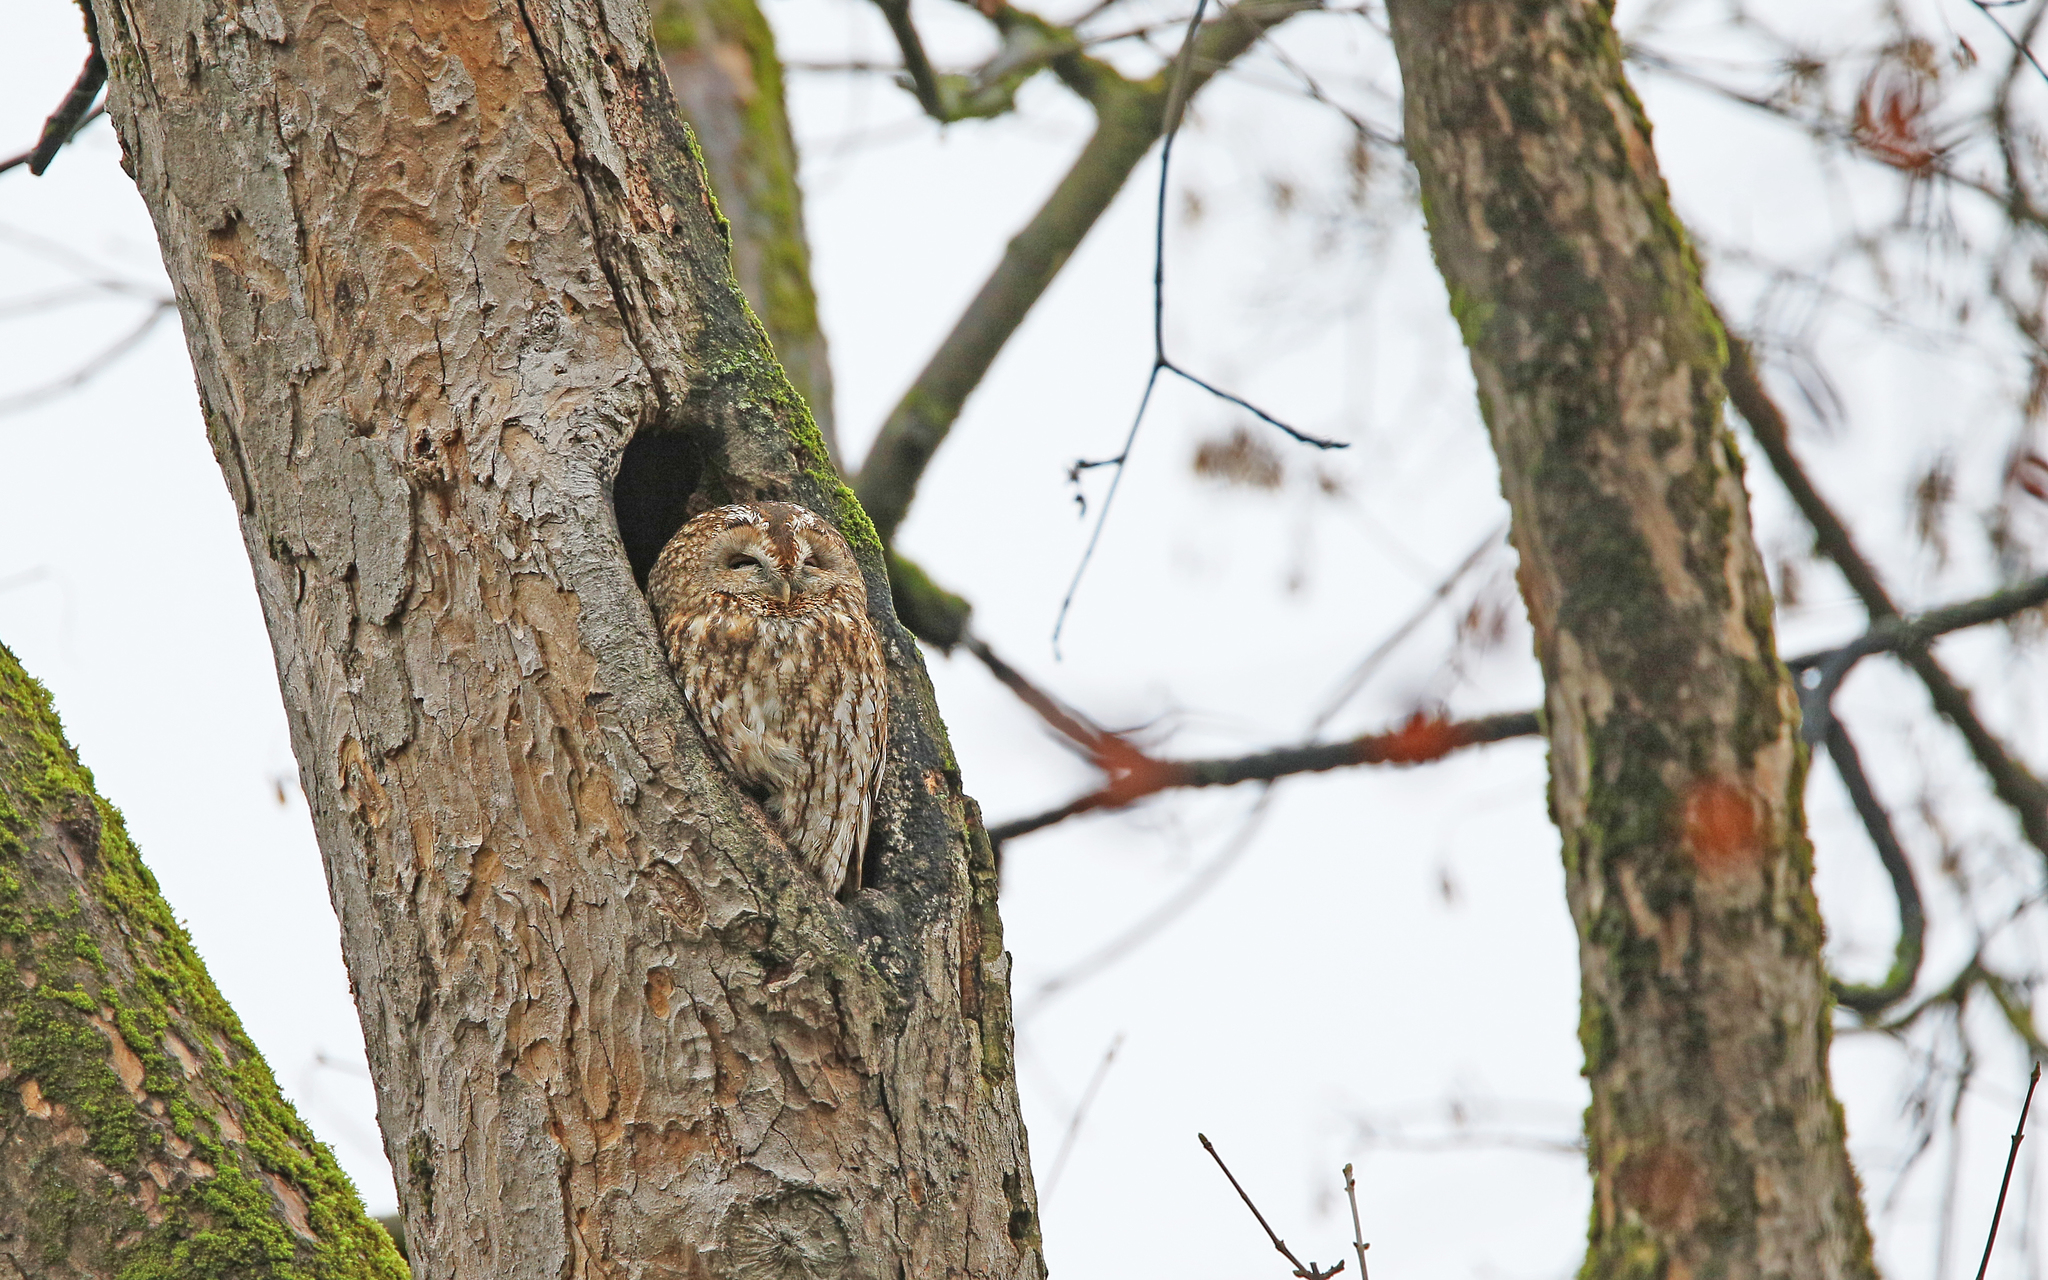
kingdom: Animalia
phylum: Chordata
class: Aves
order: Strigiformes
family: Strigidae
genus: Strix
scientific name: Strix aluco
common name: Tawny owl
